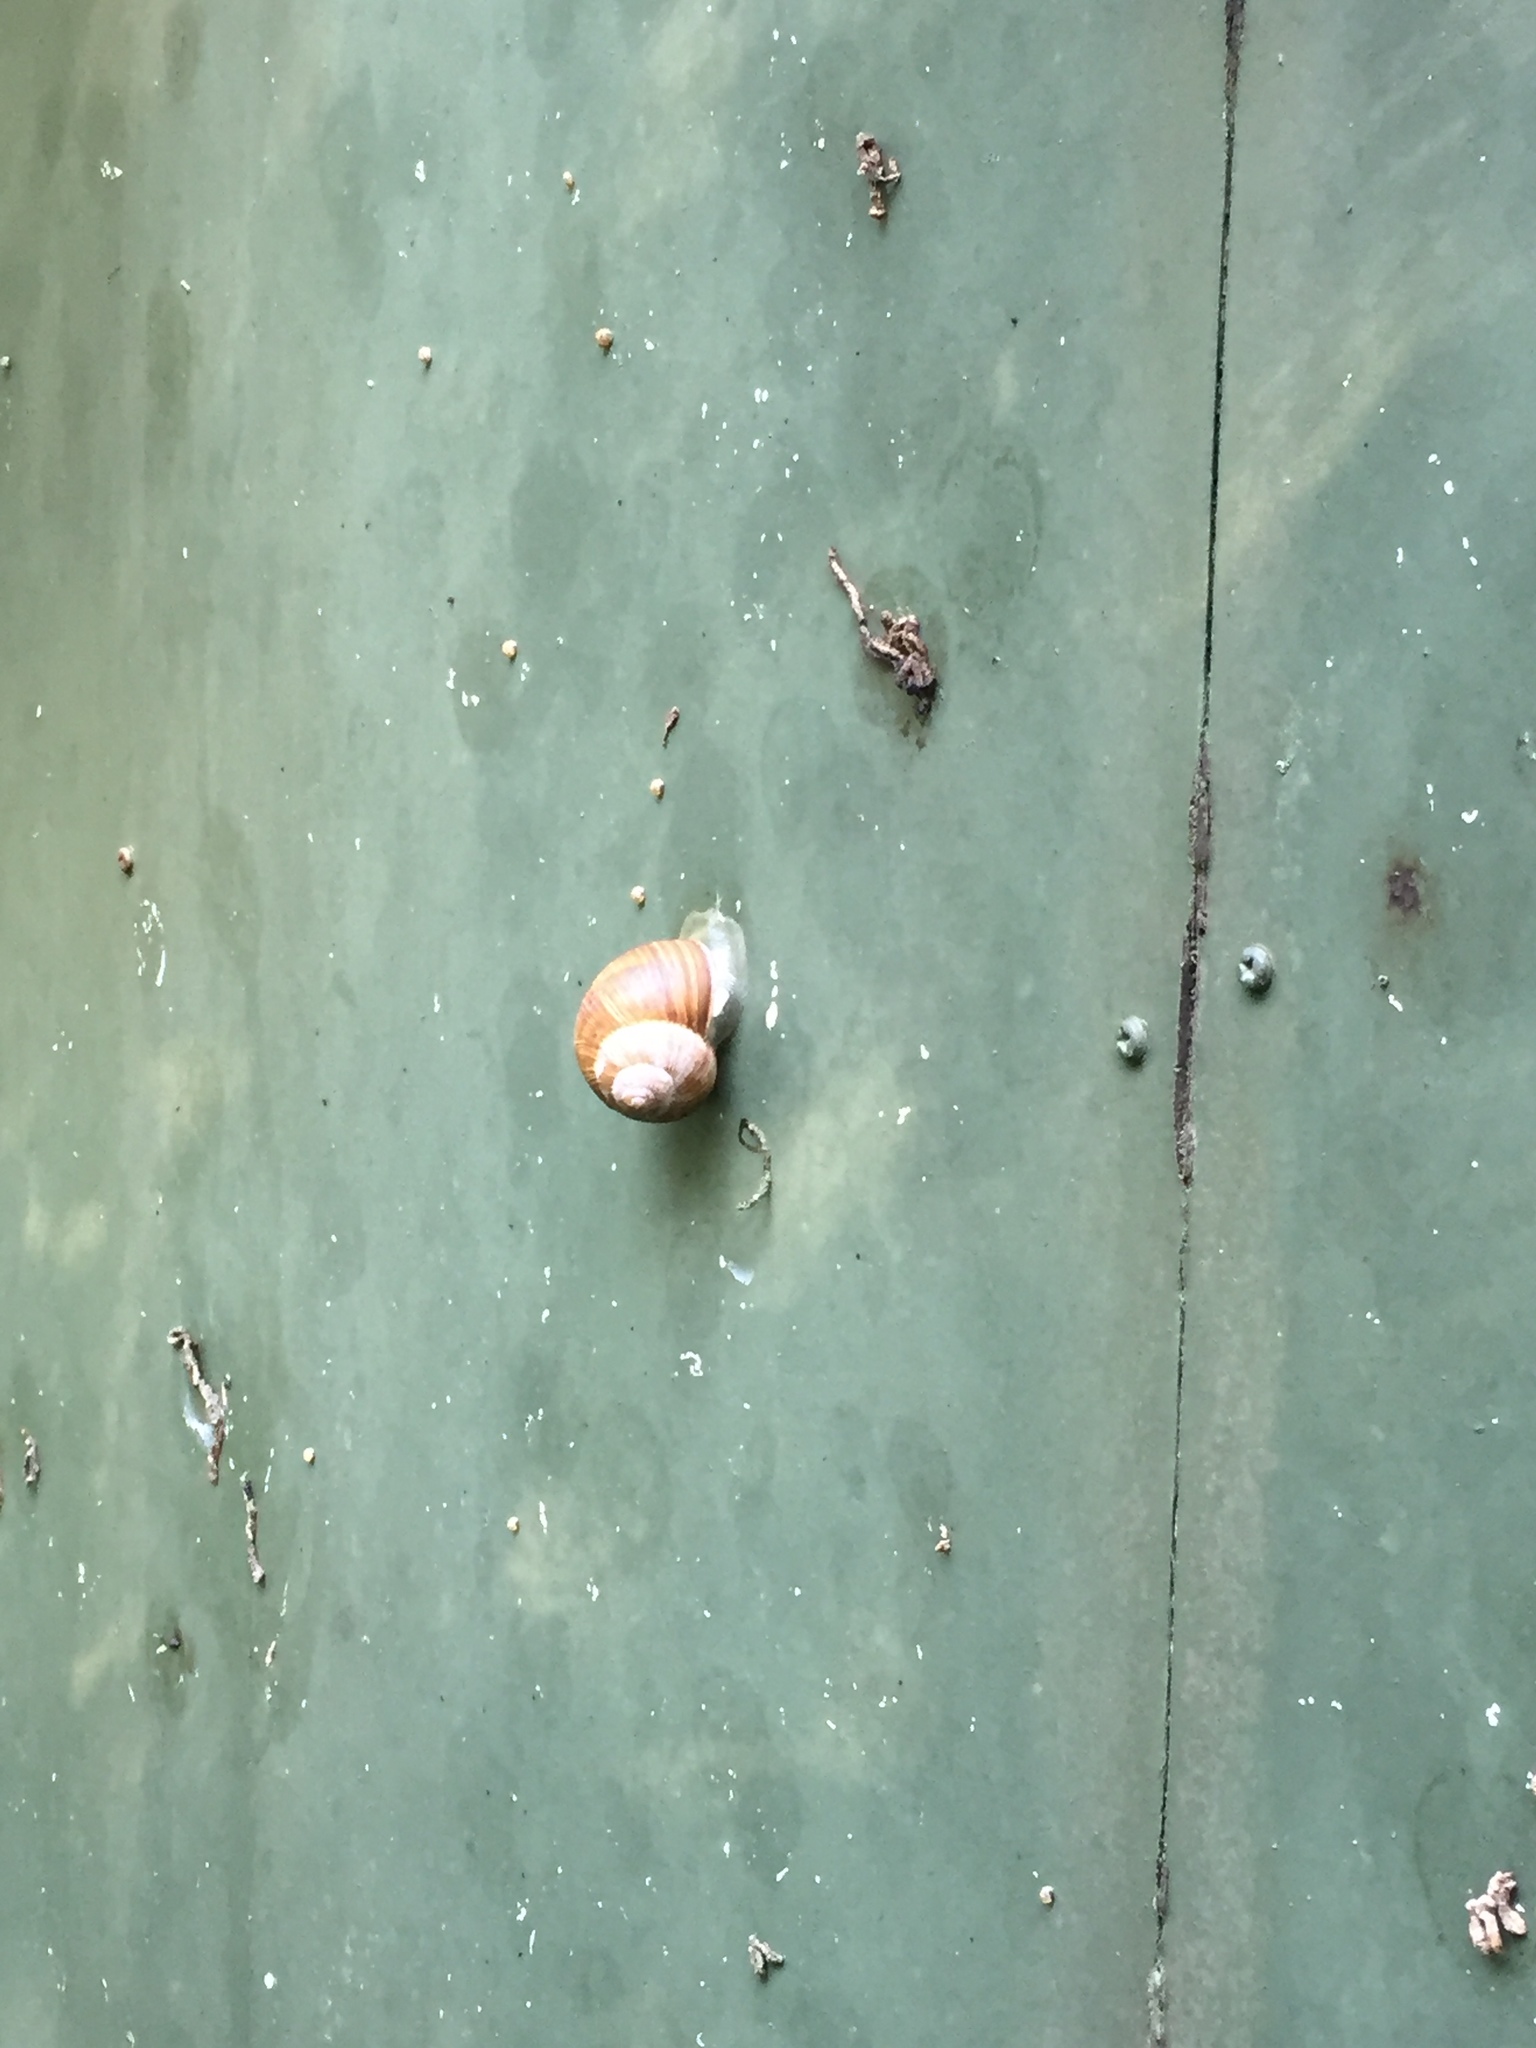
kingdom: Animalia
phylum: Mollusca
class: Gastropoda
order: Stylommatophora
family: Helicidae
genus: Cornu
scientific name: Cornu aspersum
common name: Brown garden snail
